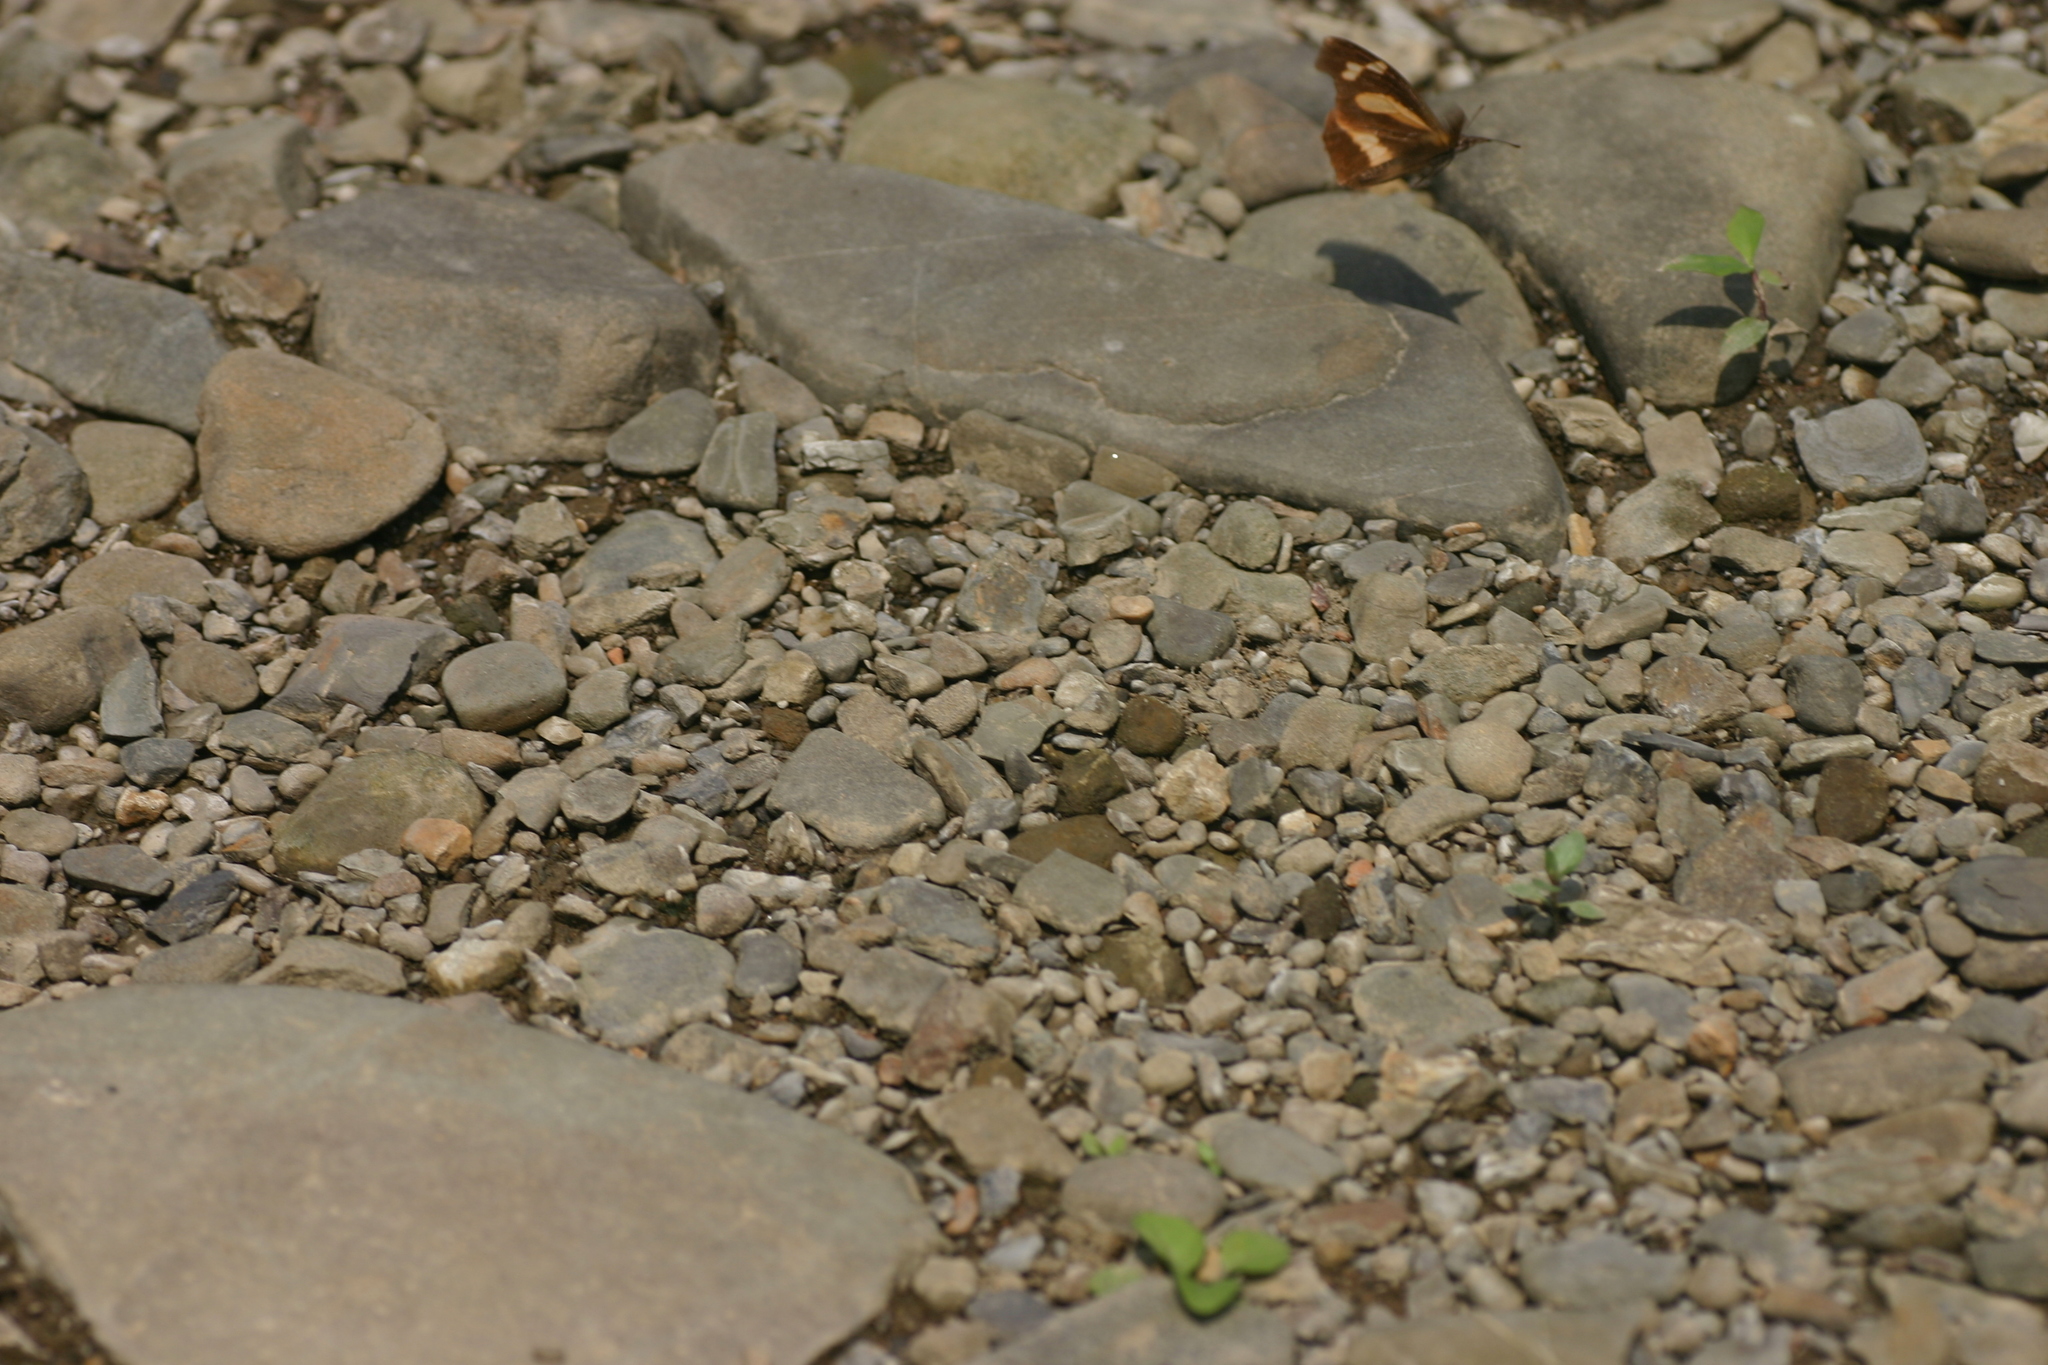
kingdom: Animalia
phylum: Arthropoda
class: Insecta
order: Lepidoptera
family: Nymphalidae
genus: Libythea
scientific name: Libythea myrrha
